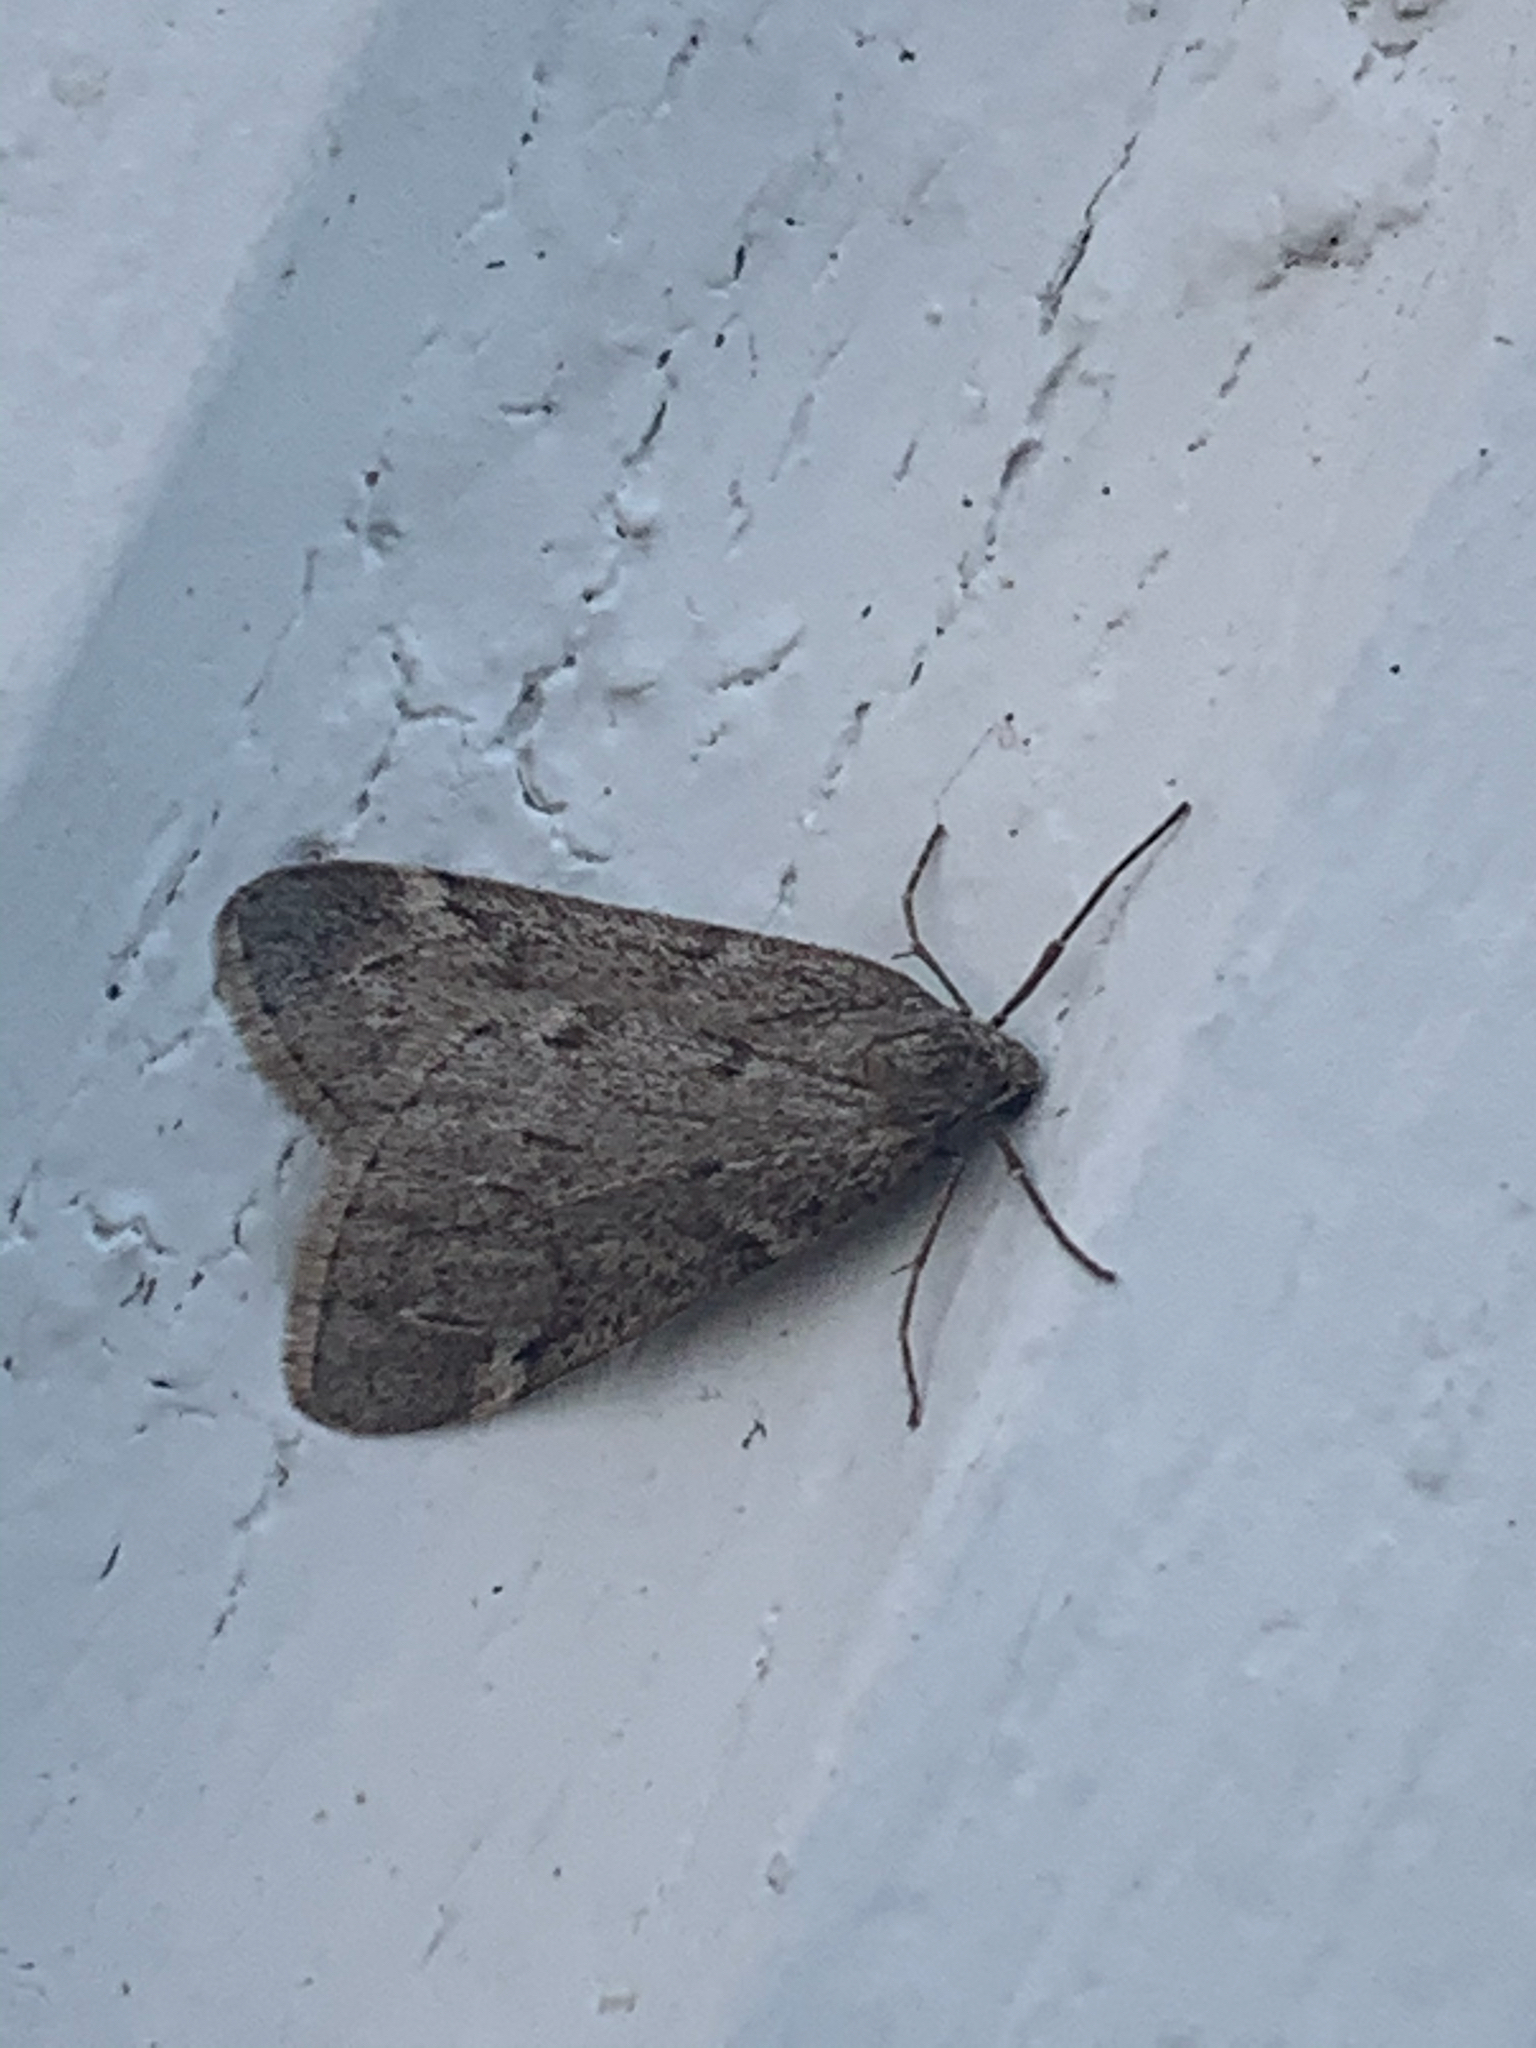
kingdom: Animalia
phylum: Arthropoda
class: Insecta
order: Lepidoptera
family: Geometridae
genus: Alsophila
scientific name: Alsophila pometaria
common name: Fall cankerworm
